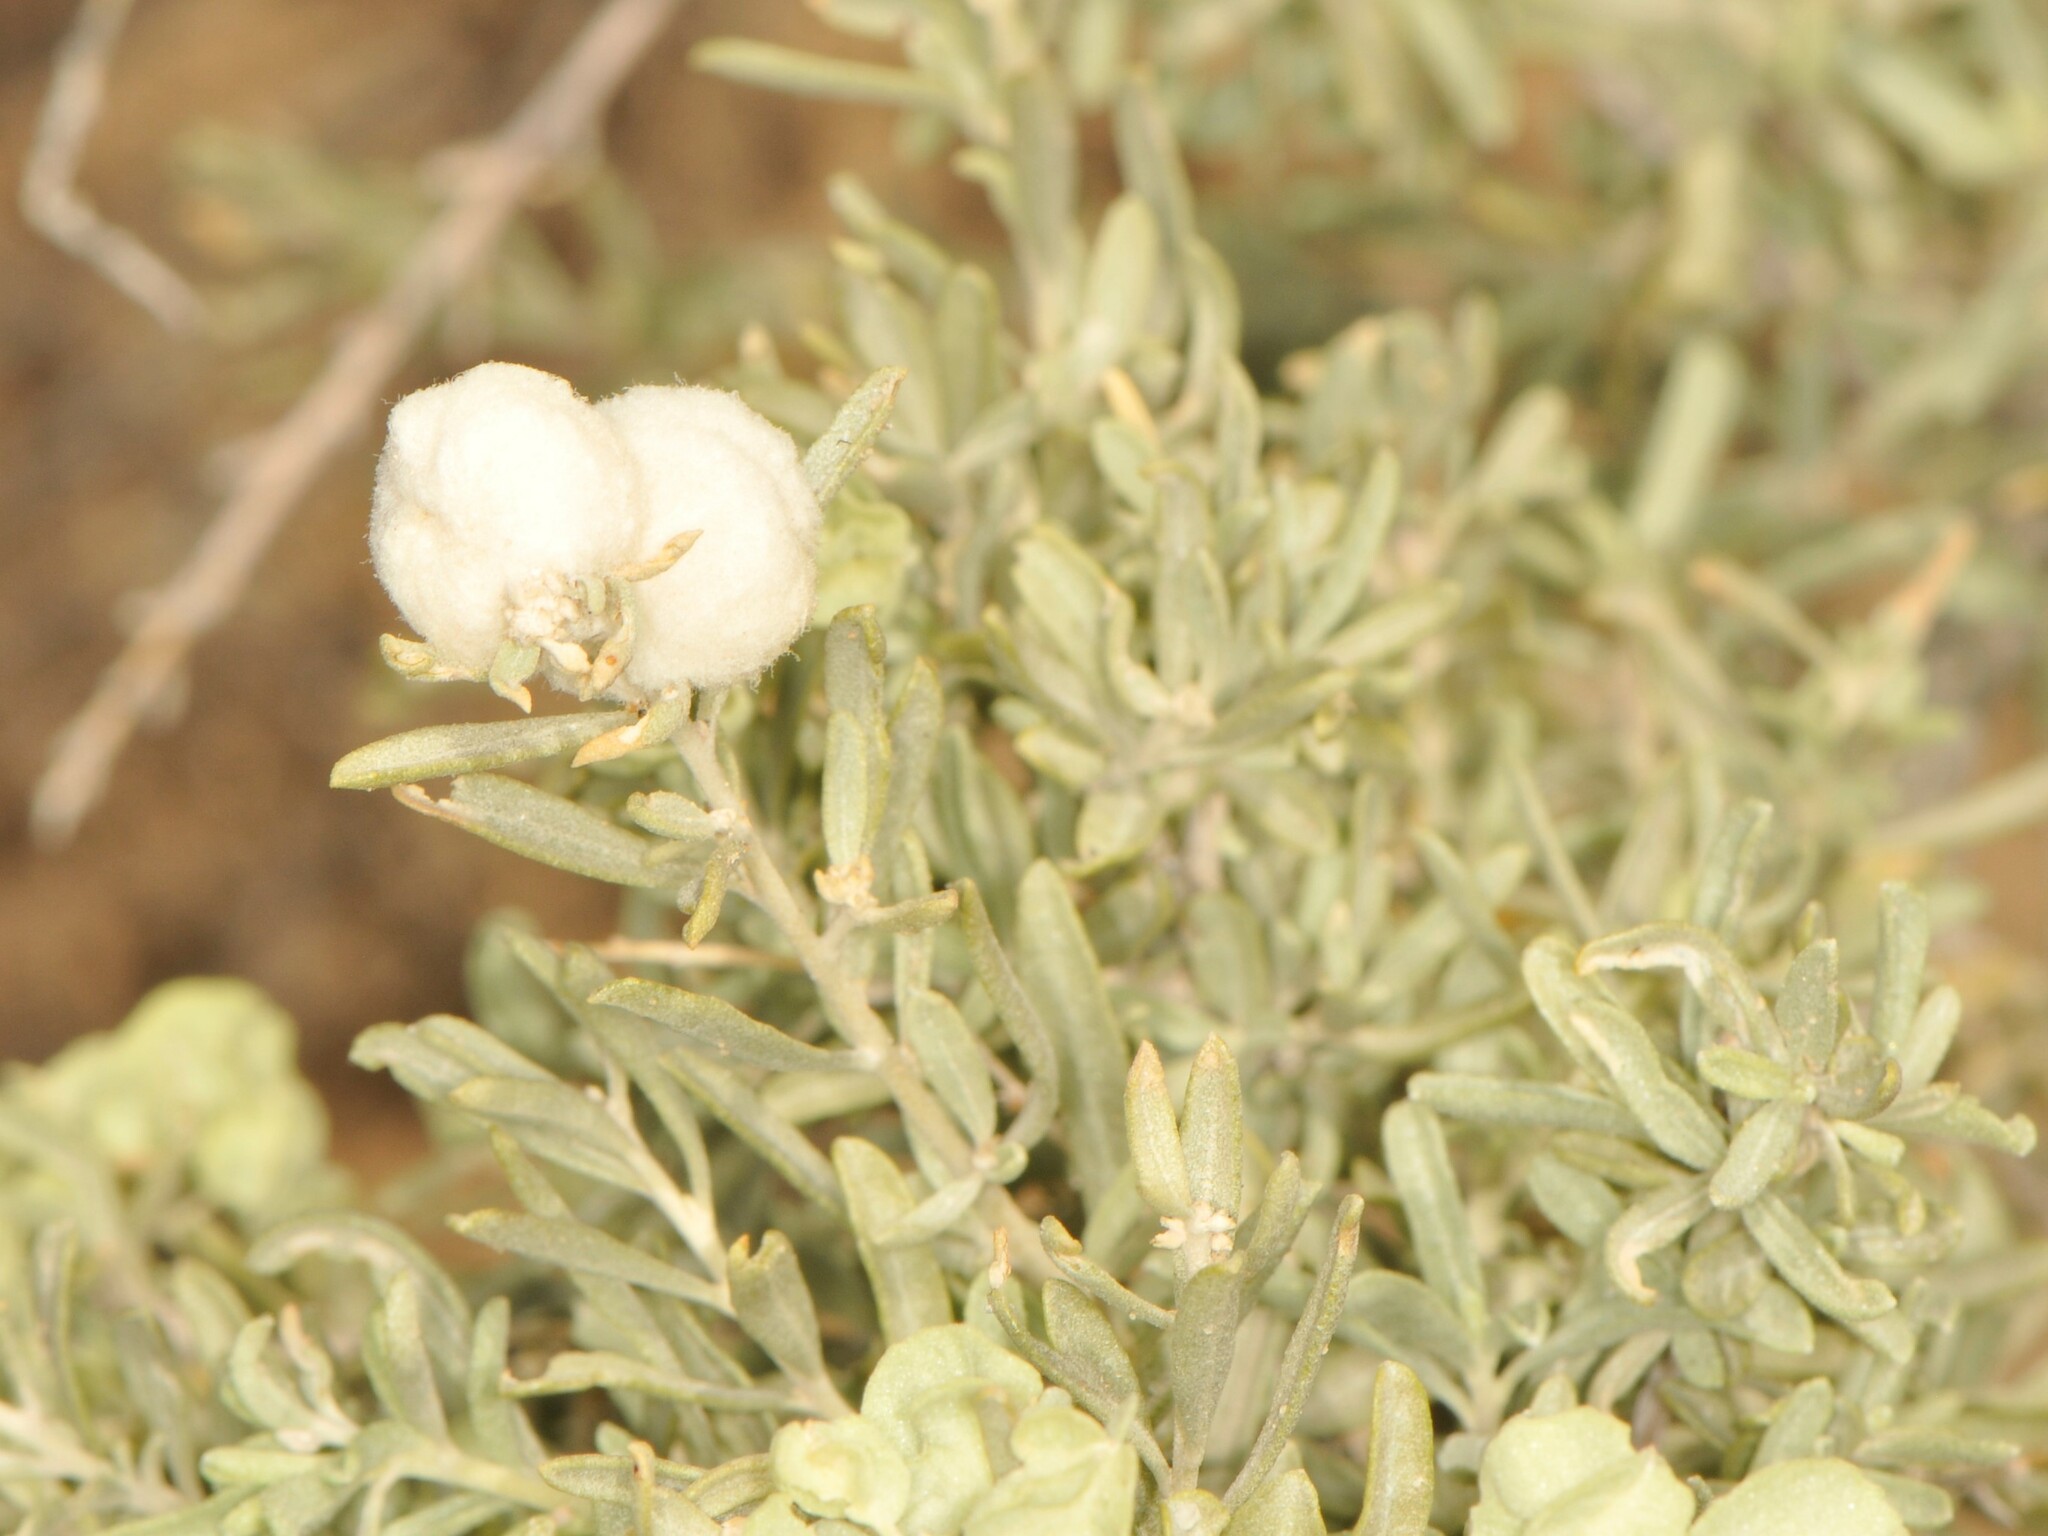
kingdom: Animalia
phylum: Arthropoda
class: Insecta
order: Diptera
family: Cecidomyiidae
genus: Asphondylia
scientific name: Asphondylia neomexicana
